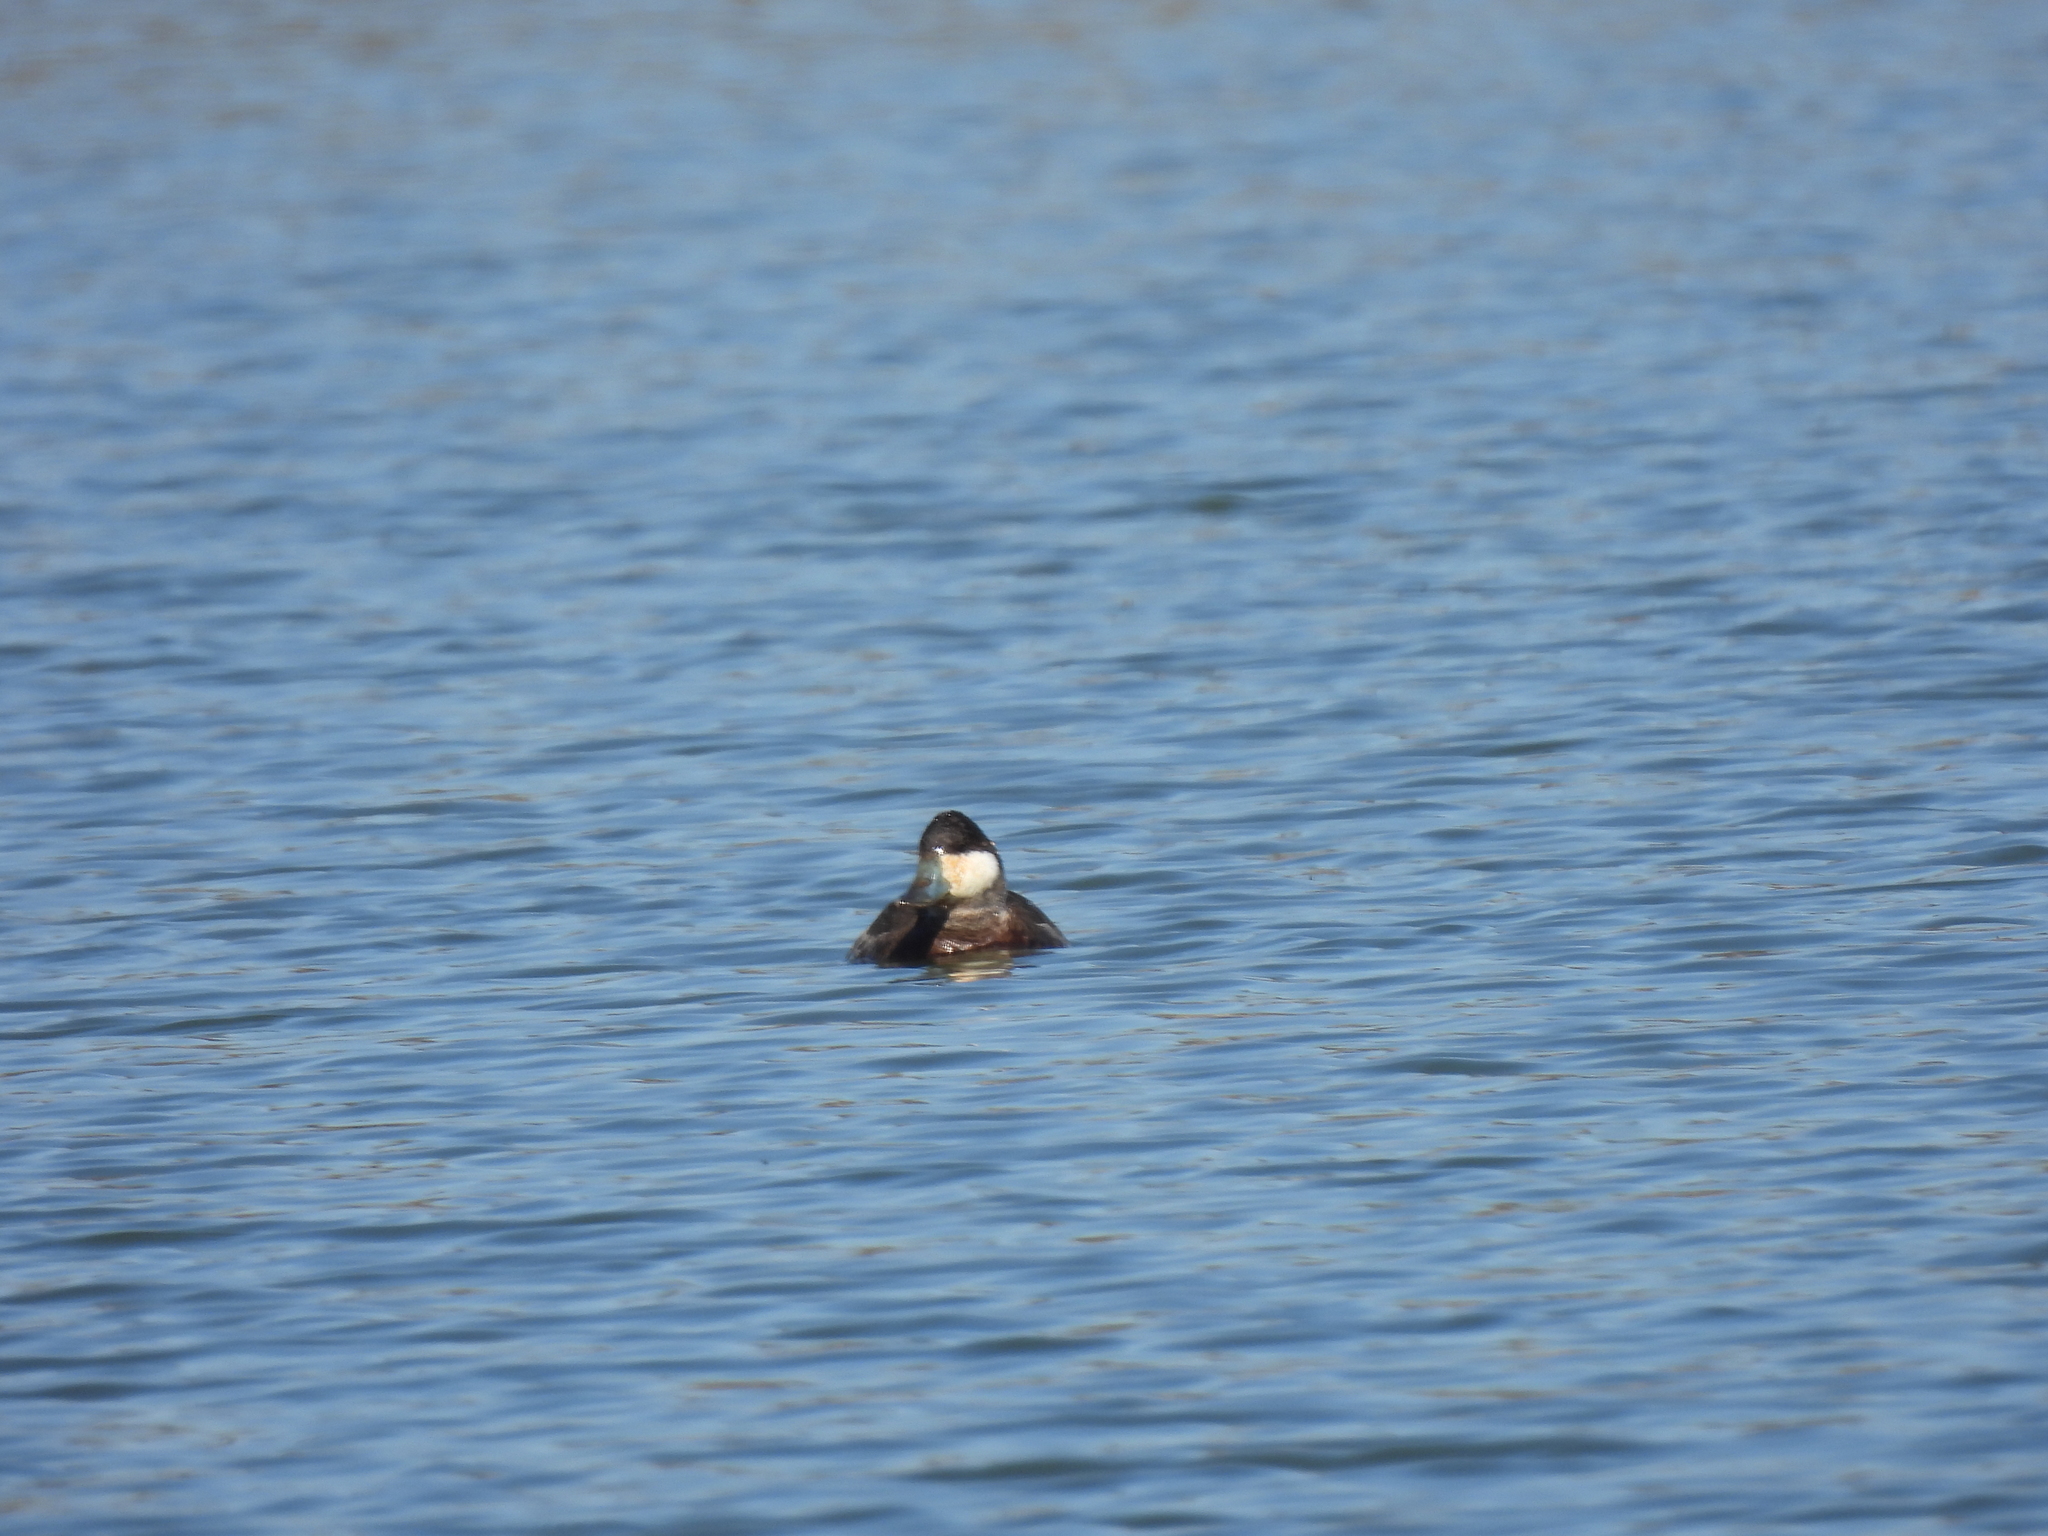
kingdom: Animalia
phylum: Chordata
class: Aves
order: Anseriformes
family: Anatidae
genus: Oxyura
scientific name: Oxyura jamaicensis
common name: Ruddy duck
